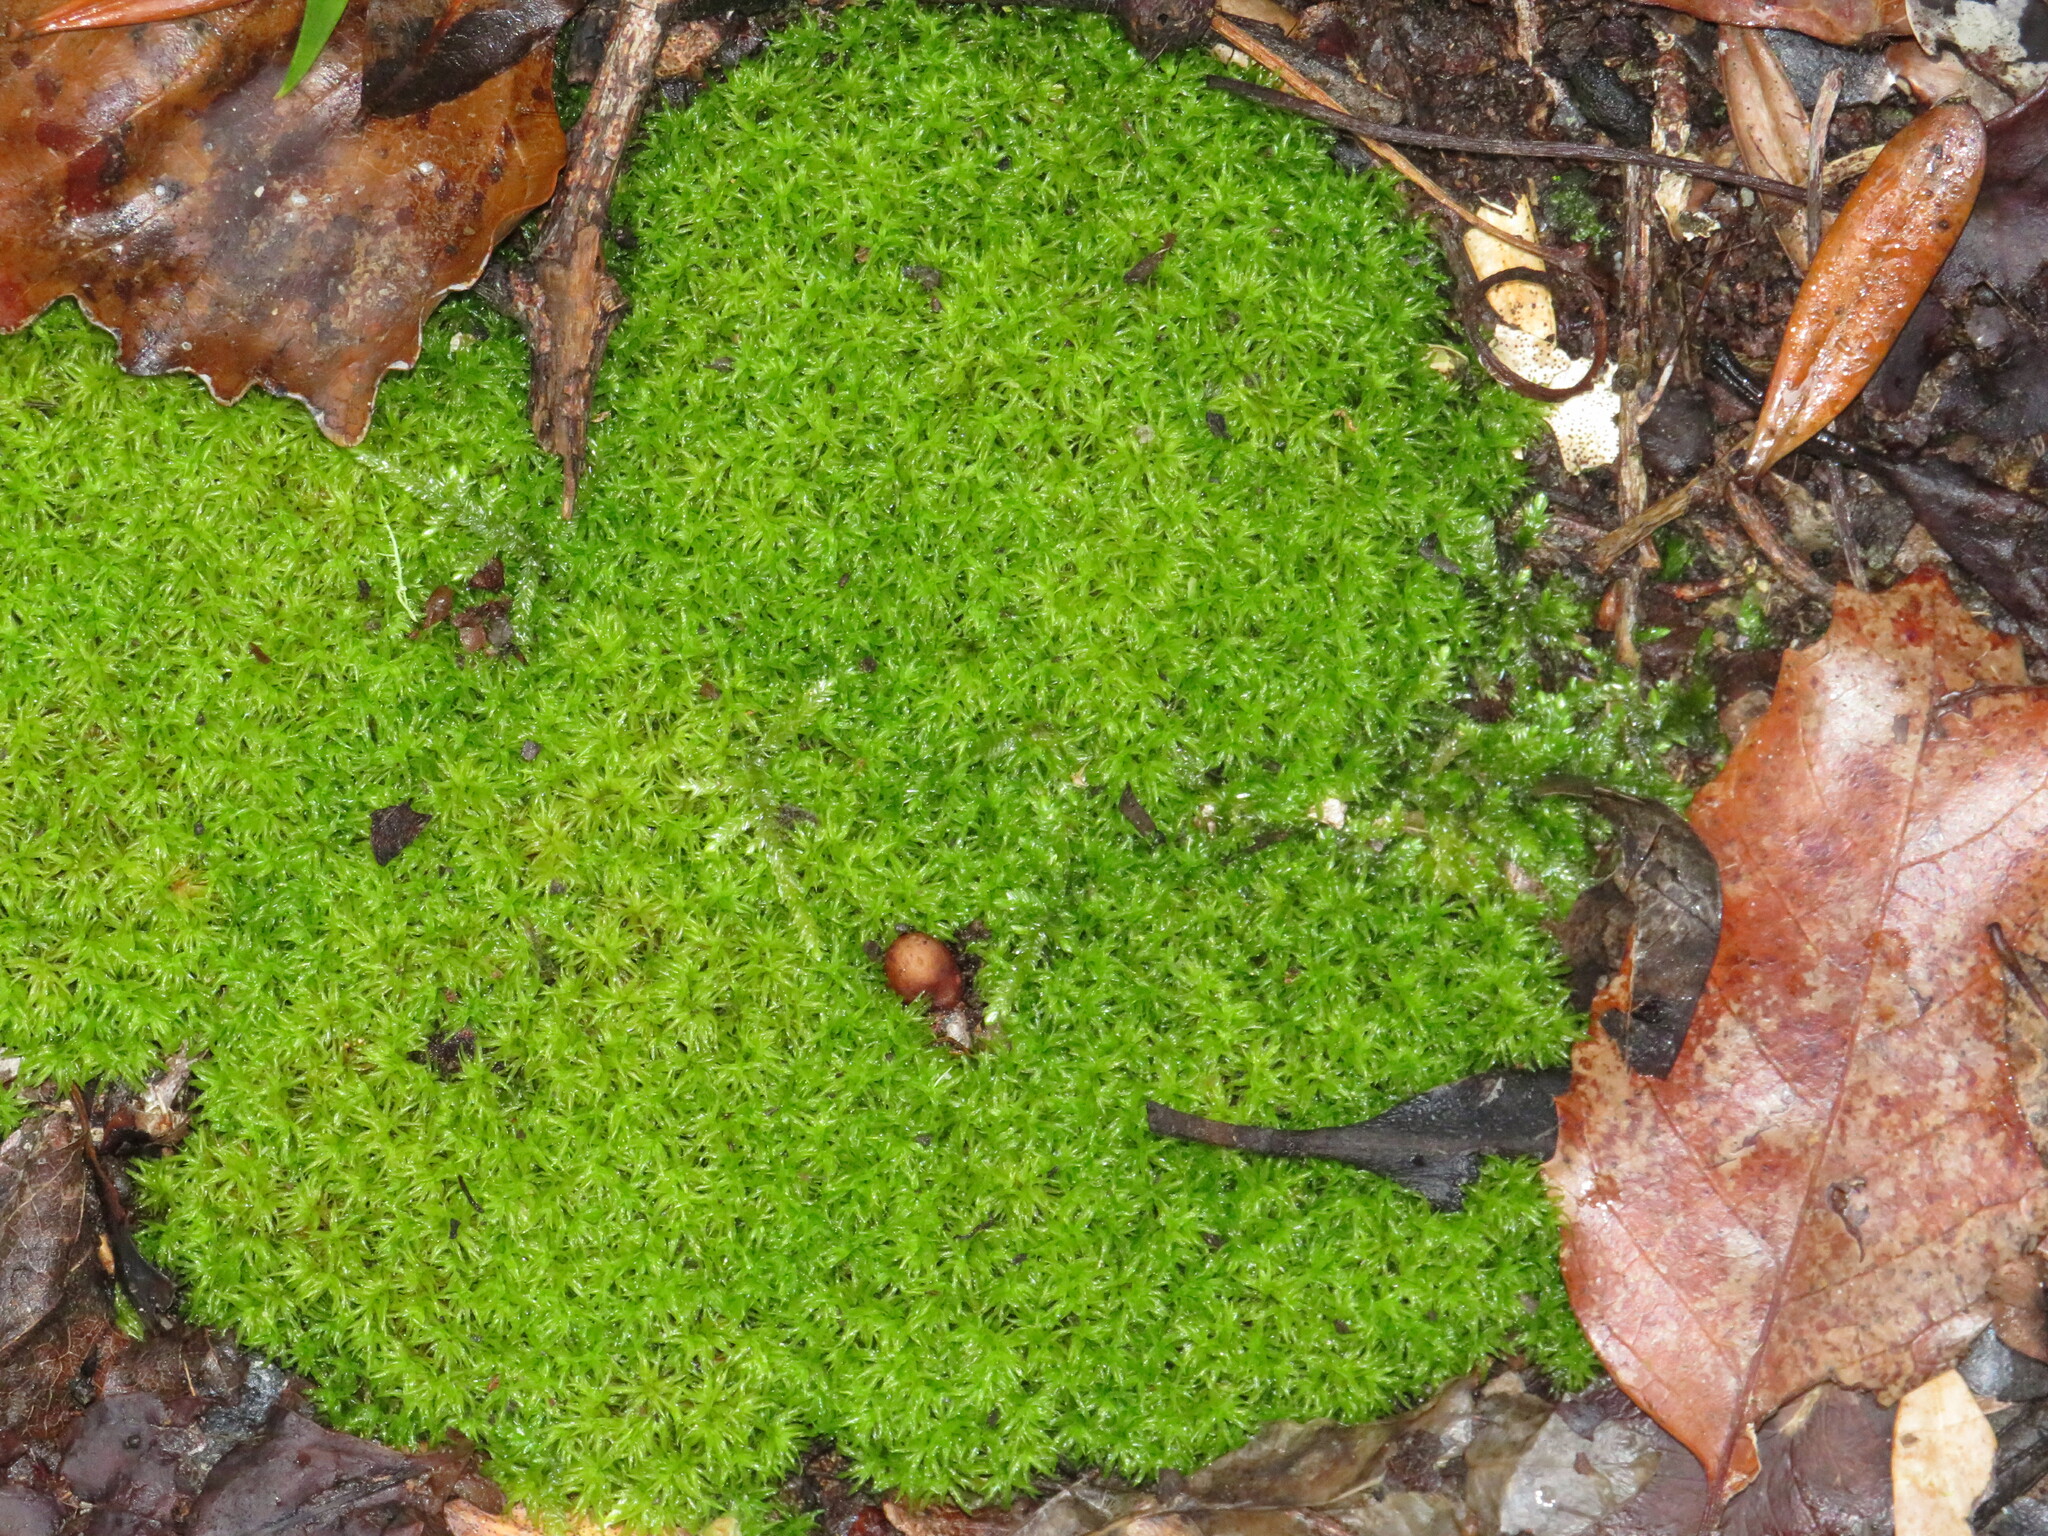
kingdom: Plantae
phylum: Bryophyta
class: Bryopsida
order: Dicranales
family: Calymperaceae
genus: Syrrhopodon
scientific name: Syrrhopodon gaudichaudii
